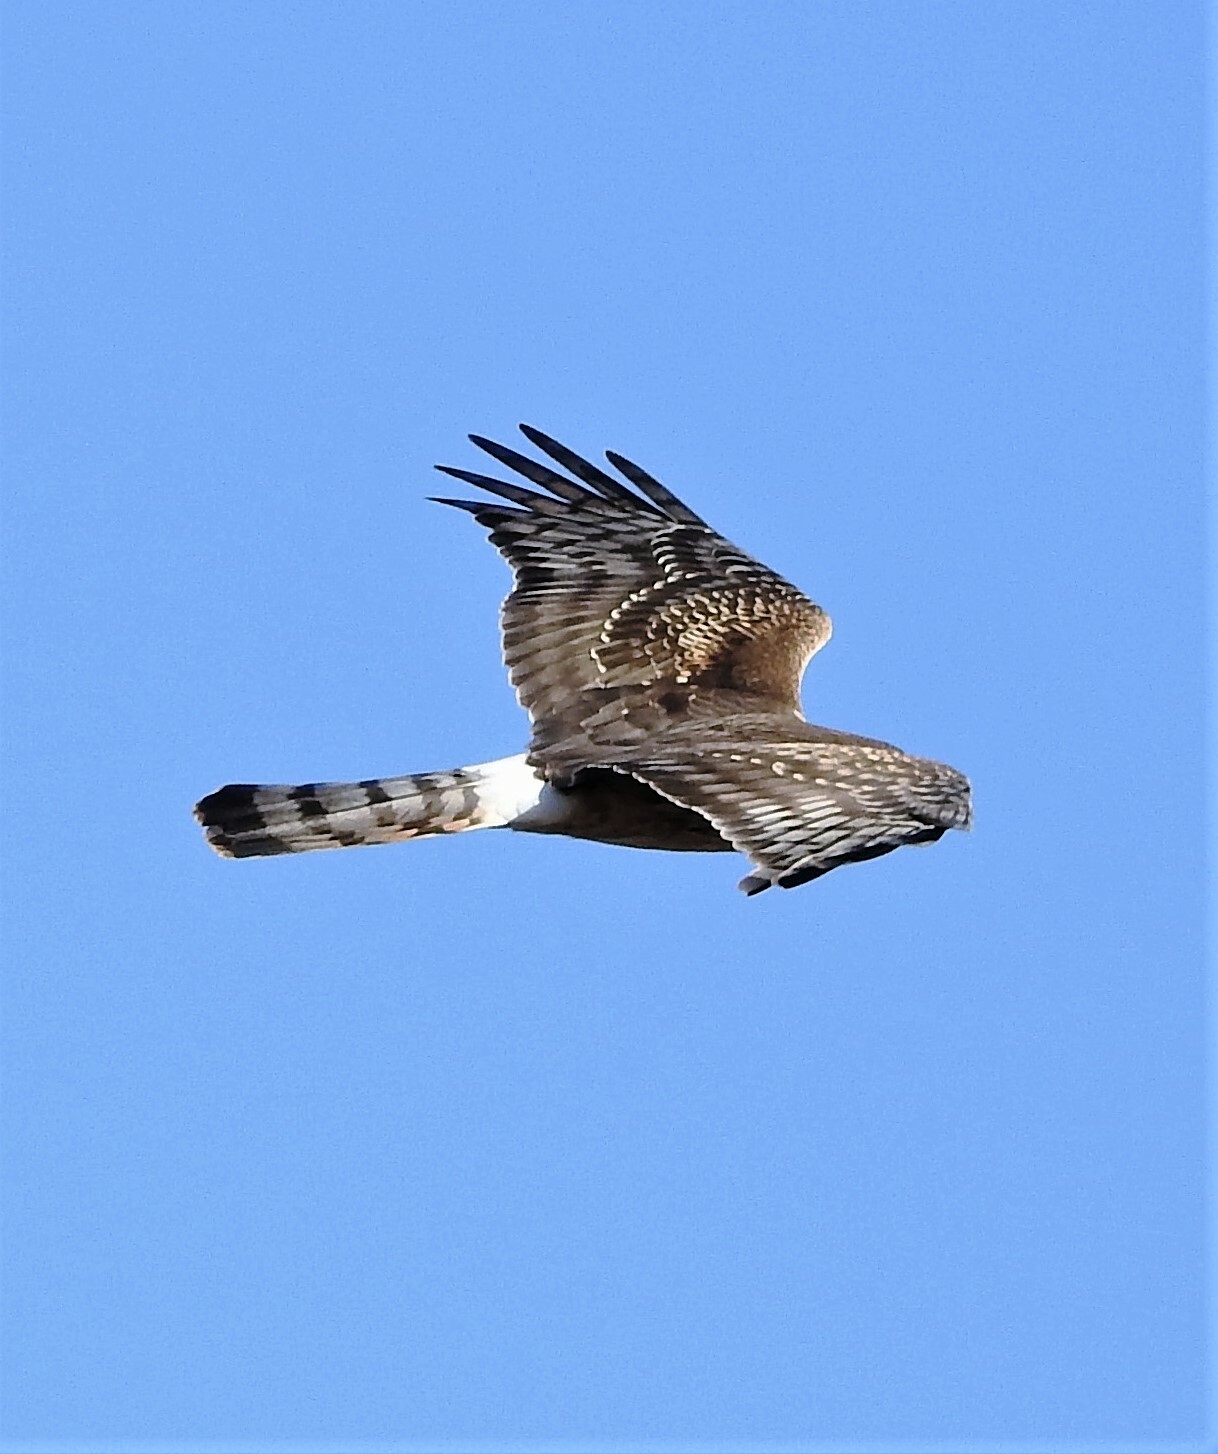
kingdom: Animalia
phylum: Chordata
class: Aves
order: Accipitriformes
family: Accipitridae
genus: Circus
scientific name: Circus cinereus
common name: Cinereous harrier
